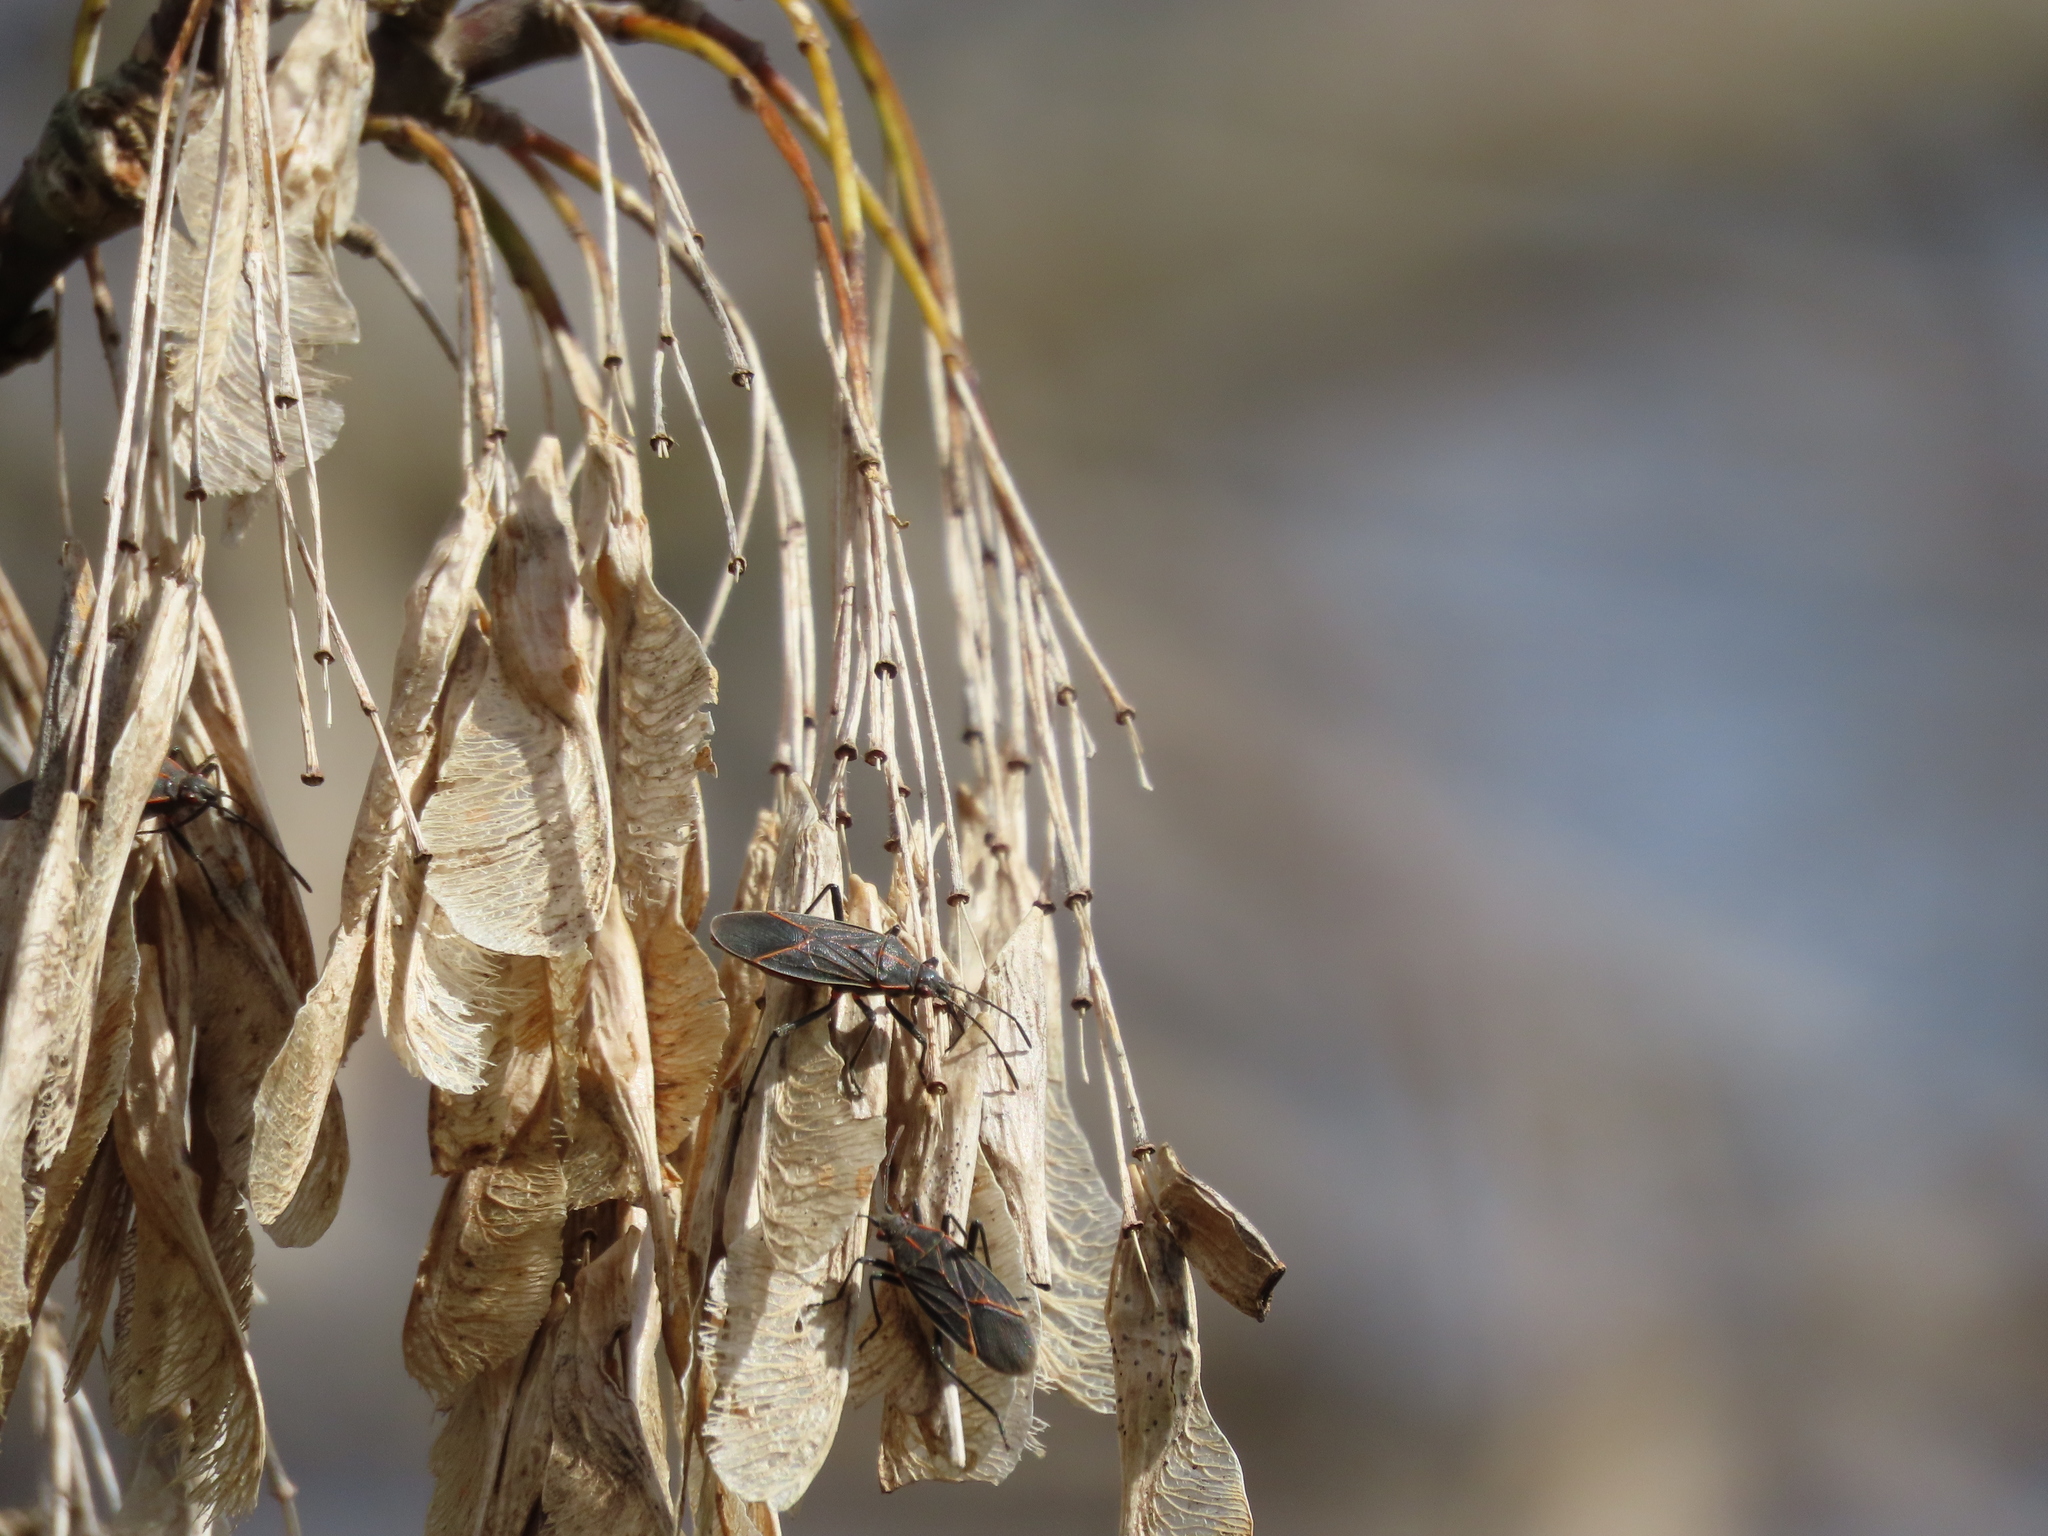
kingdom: Animalia
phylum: Arthropoda
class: Insecta
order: Hemiptera
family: Rhopalidae
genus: Boisea
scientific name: Boisea rubrolineata
